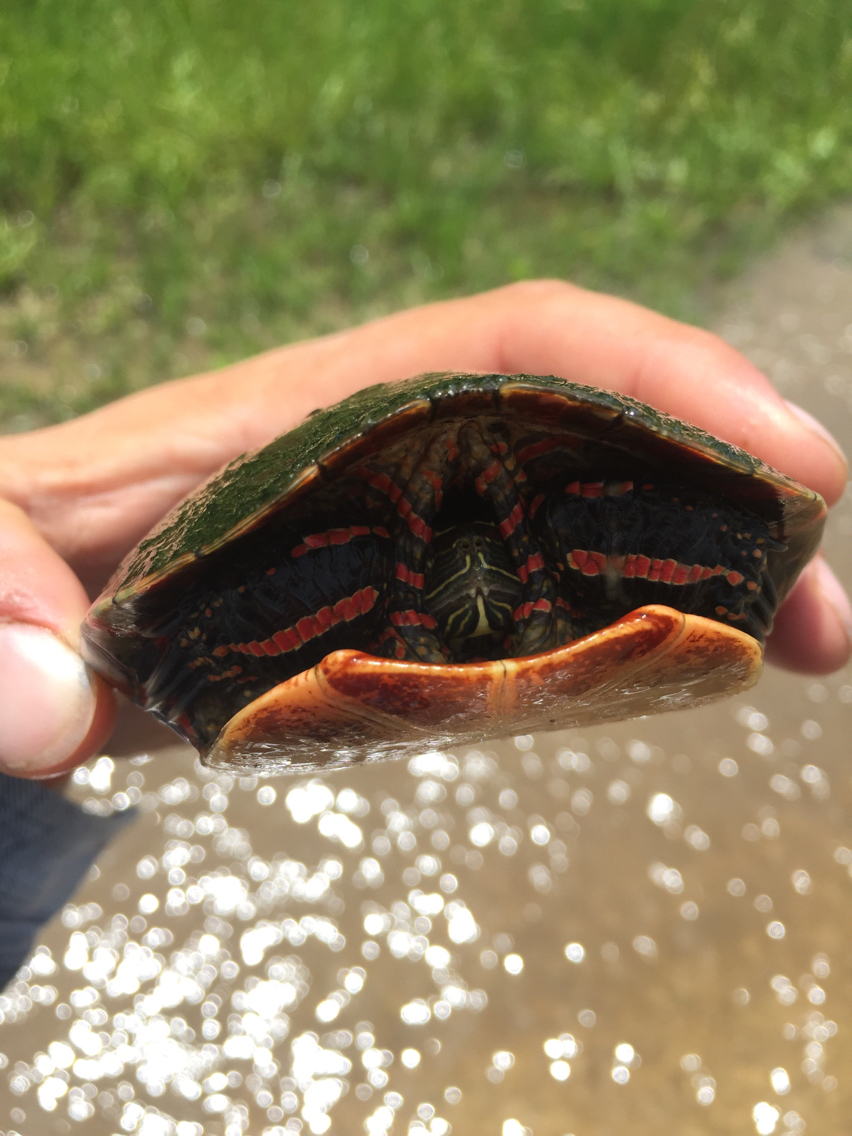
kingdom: Animalia
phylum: Chordata
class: Testudines
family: Emydidae
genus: Chrysemys
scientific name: Chrysemys picta
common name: Painted turtle
